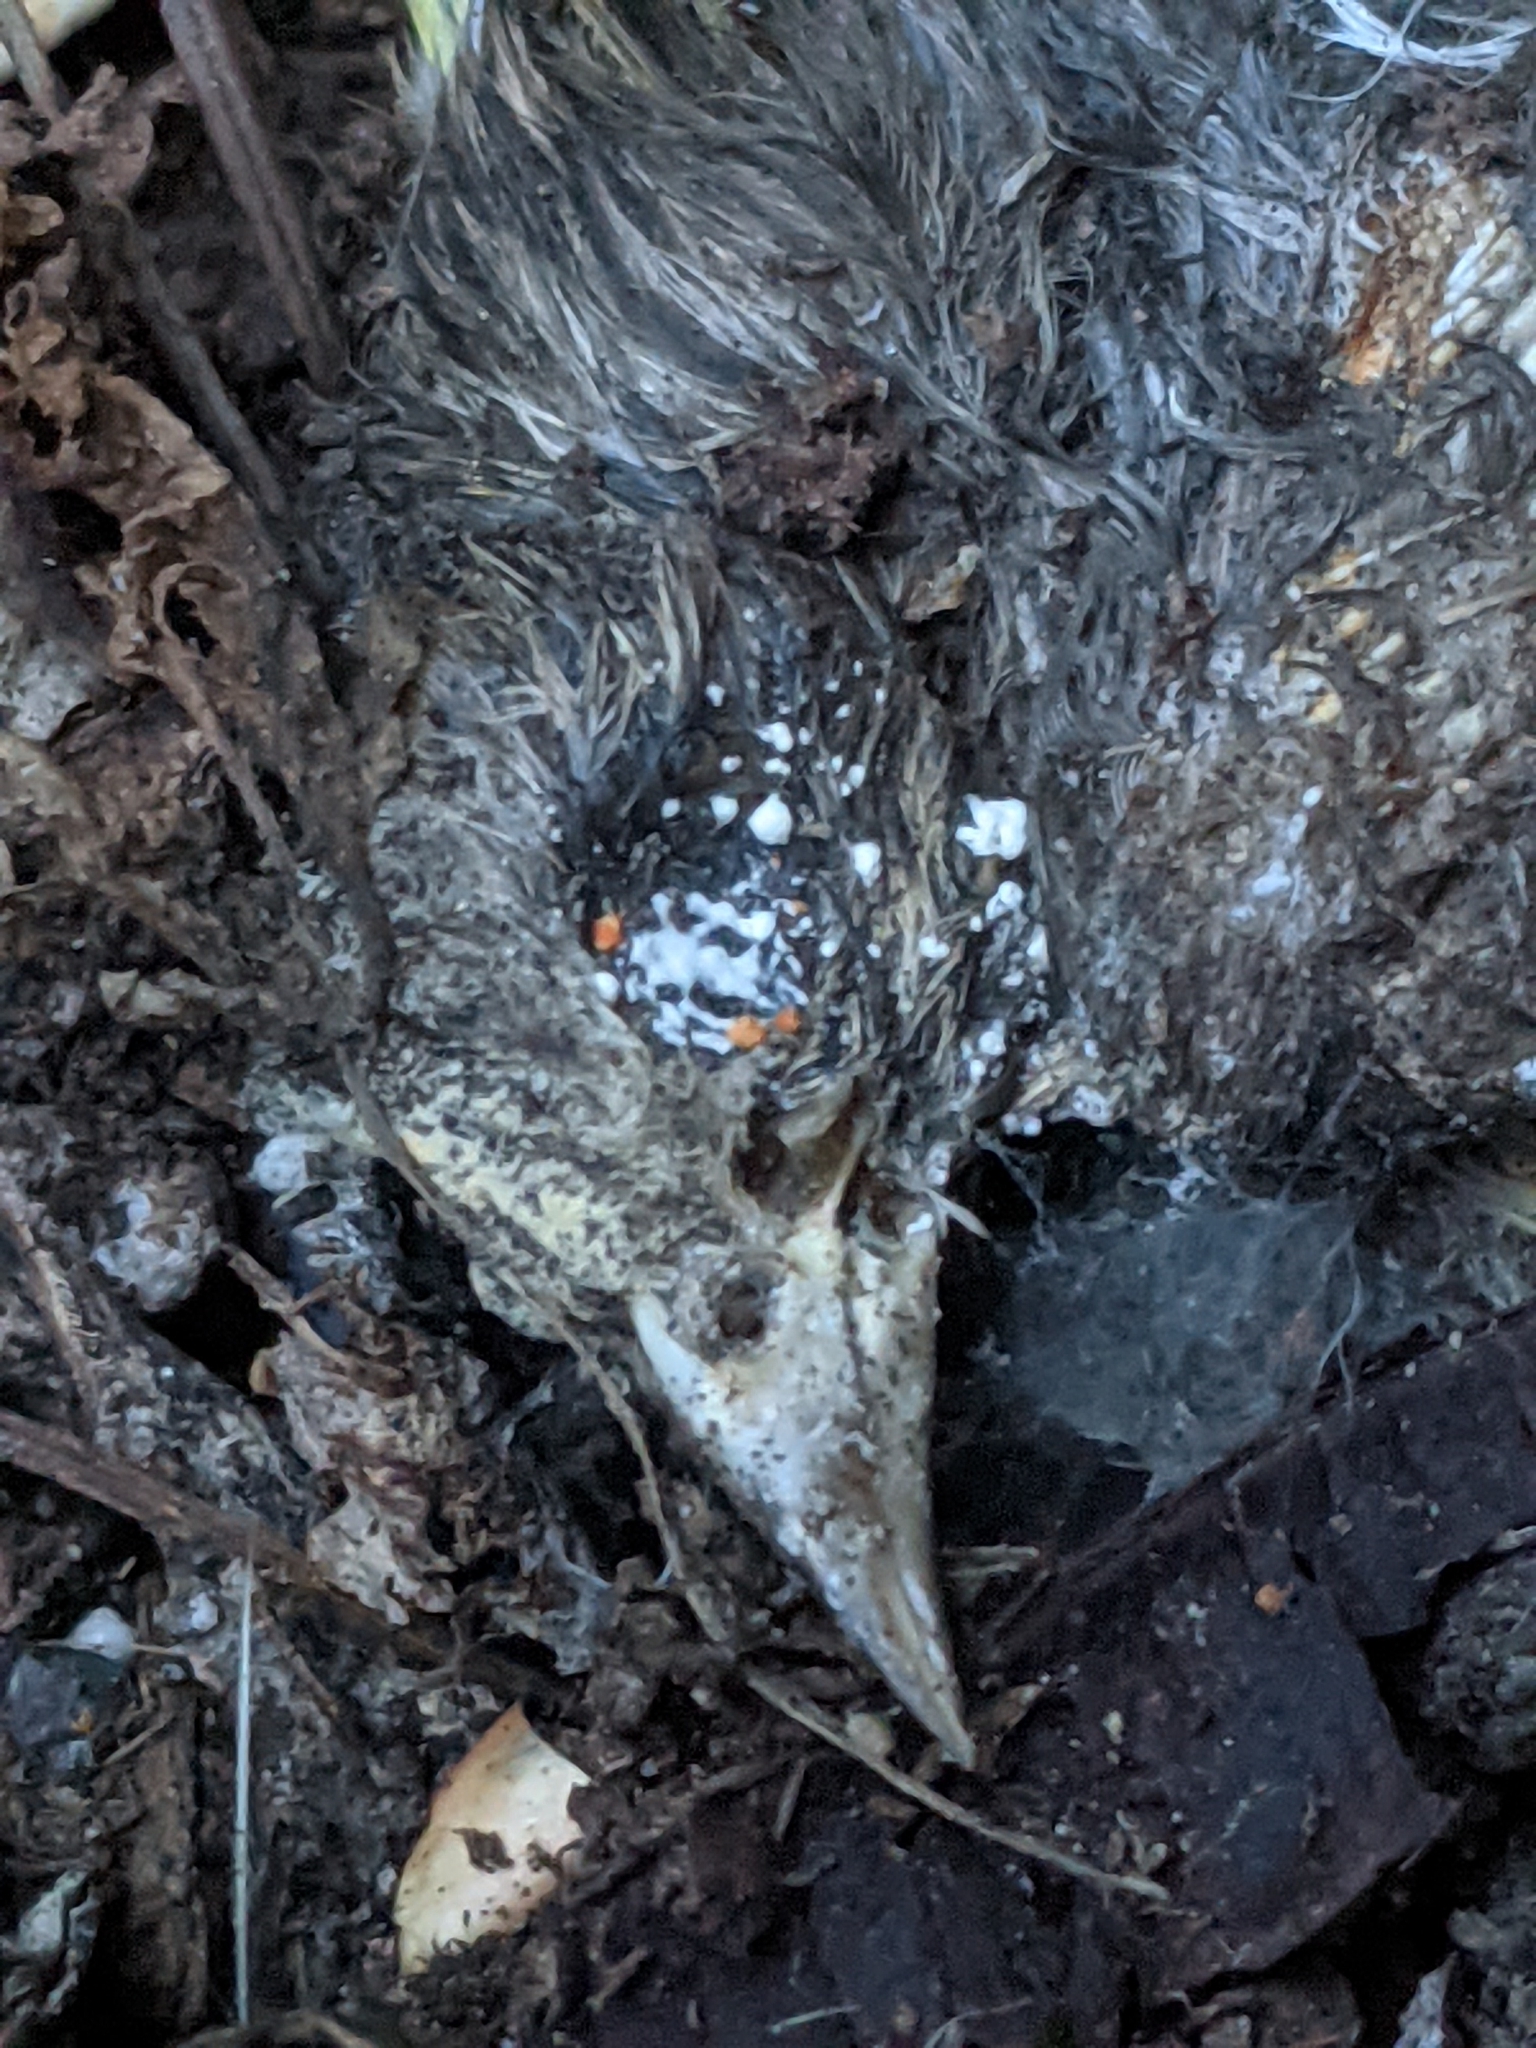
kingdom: Animalia
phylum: Chordata
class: Aves
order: Passeriformes
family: Fringillidae
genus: Spinus
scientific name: Spinus pinus
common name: Pine siskin
